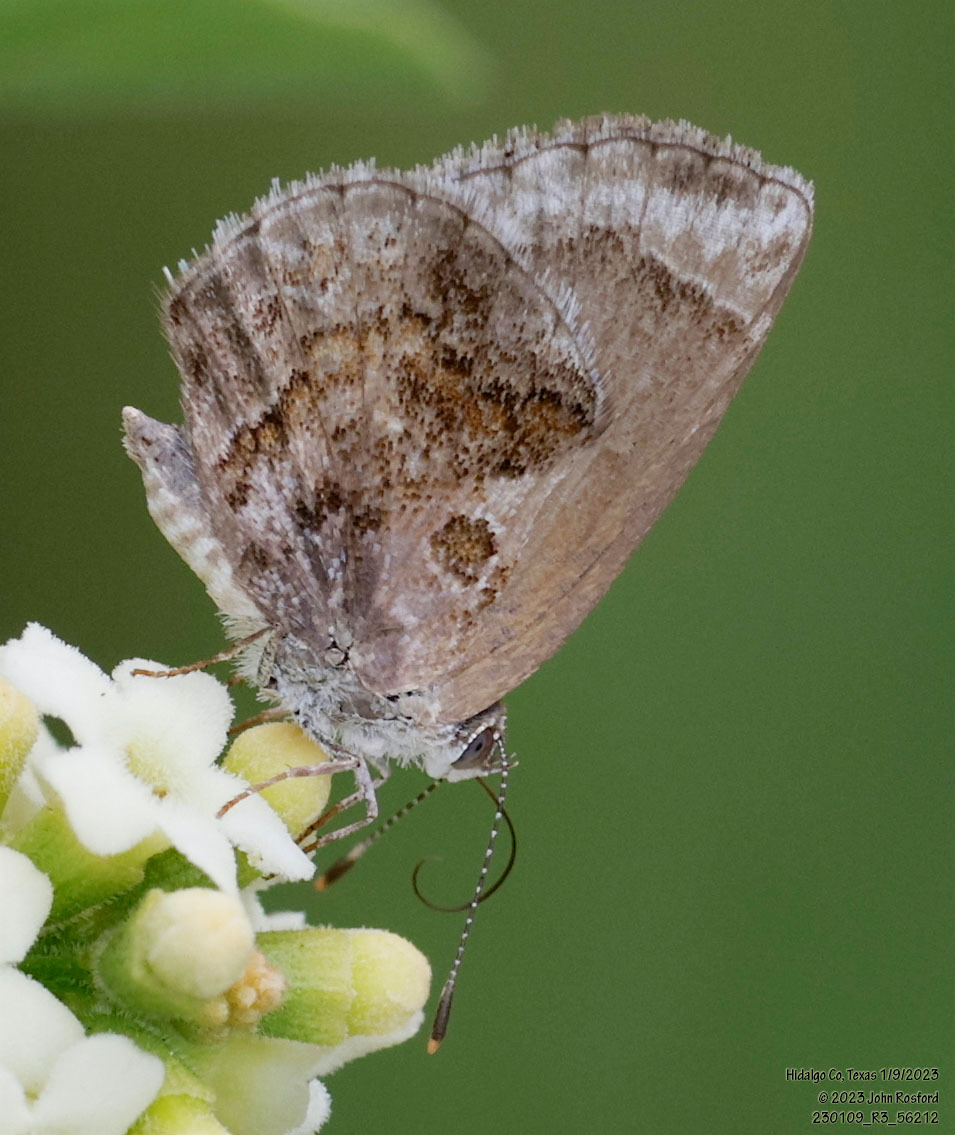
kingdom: Animalia
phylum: Arthropoda
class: Insecta
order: Lepidoptera
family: Lycaenidae
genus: Strymon
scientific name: Strymon bazochii
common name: Lantana scrub-hairstreak
